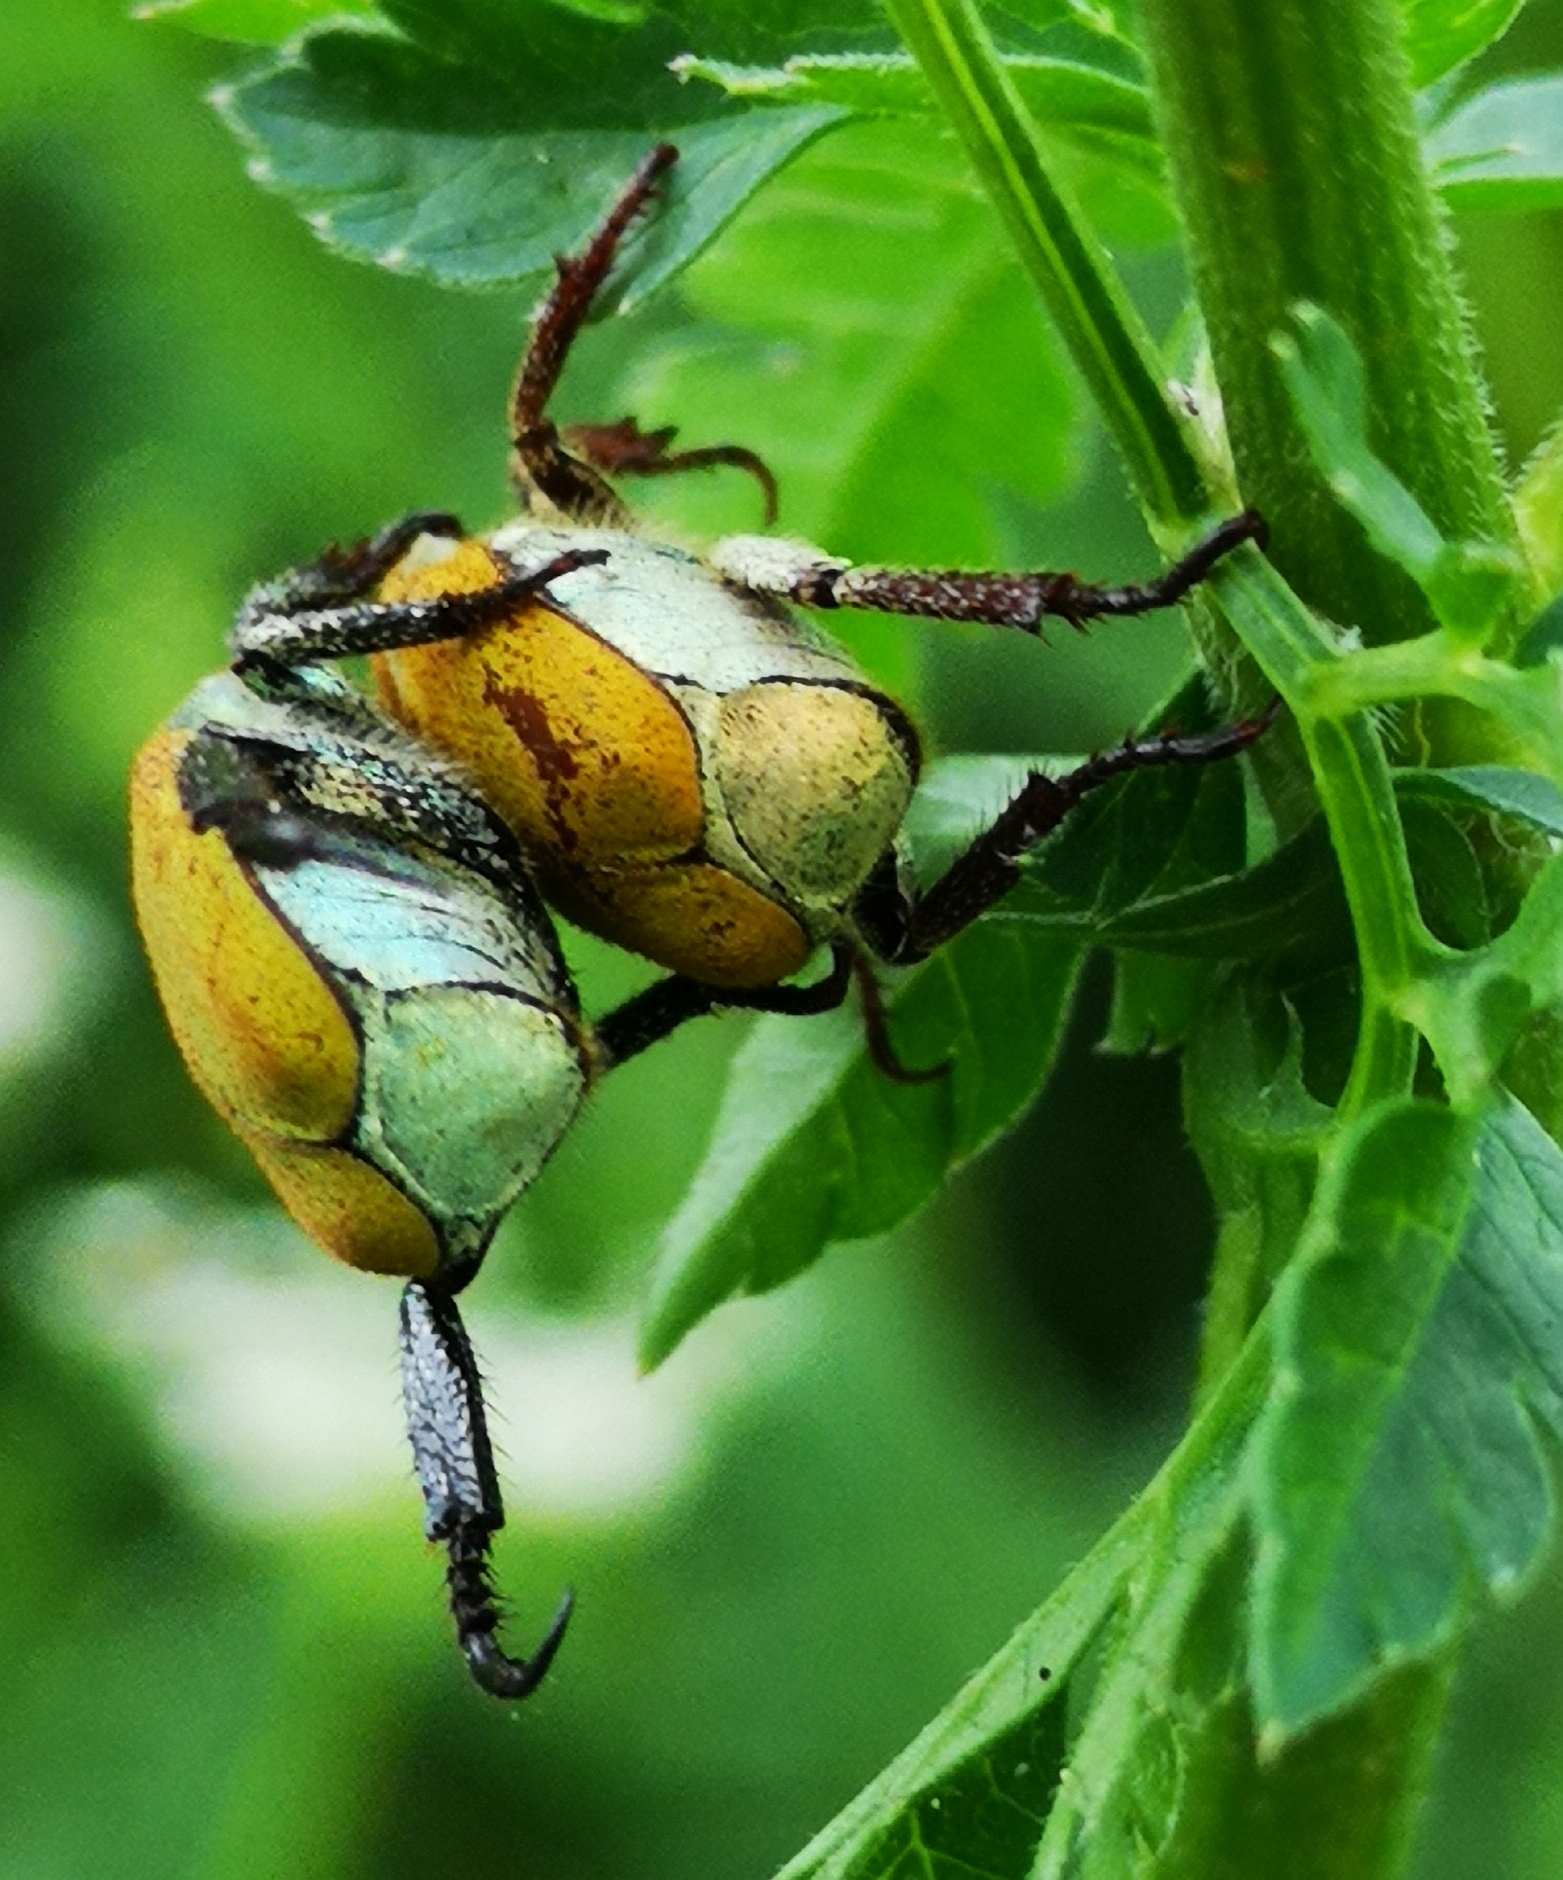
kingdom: Animalia
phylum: Arthropoda
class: Insecta
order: Coleoptera
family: Scarabaeidae
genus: Hoplia
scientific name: Hoplia argentea
